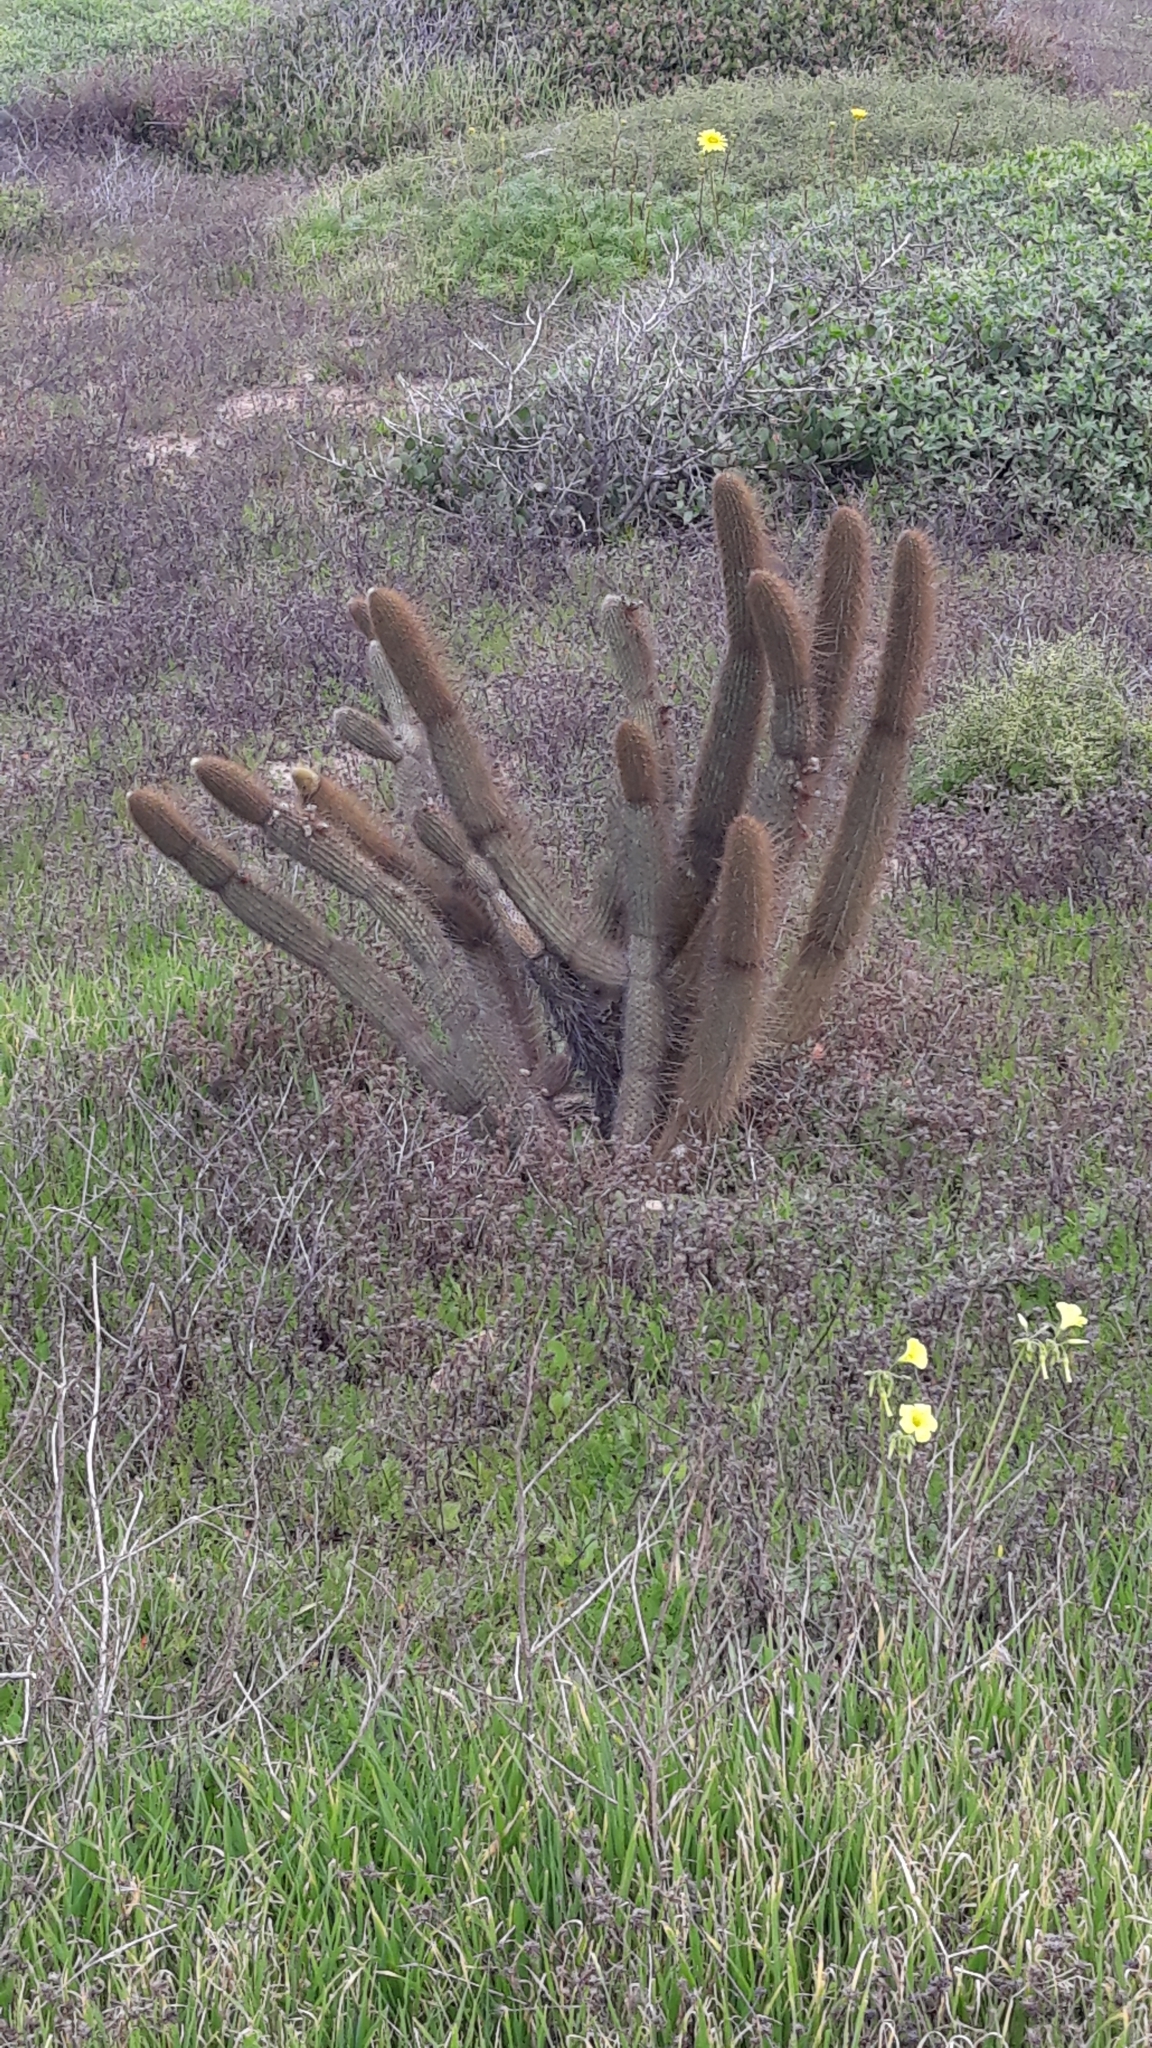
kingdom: Plantae
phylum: Tracheophyta
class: Magnoliopsida
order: Caryophyllales
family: Cactaceae
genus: Bergerocactus
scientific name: Bergerocactus emoryi
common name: Golden snakecactus
